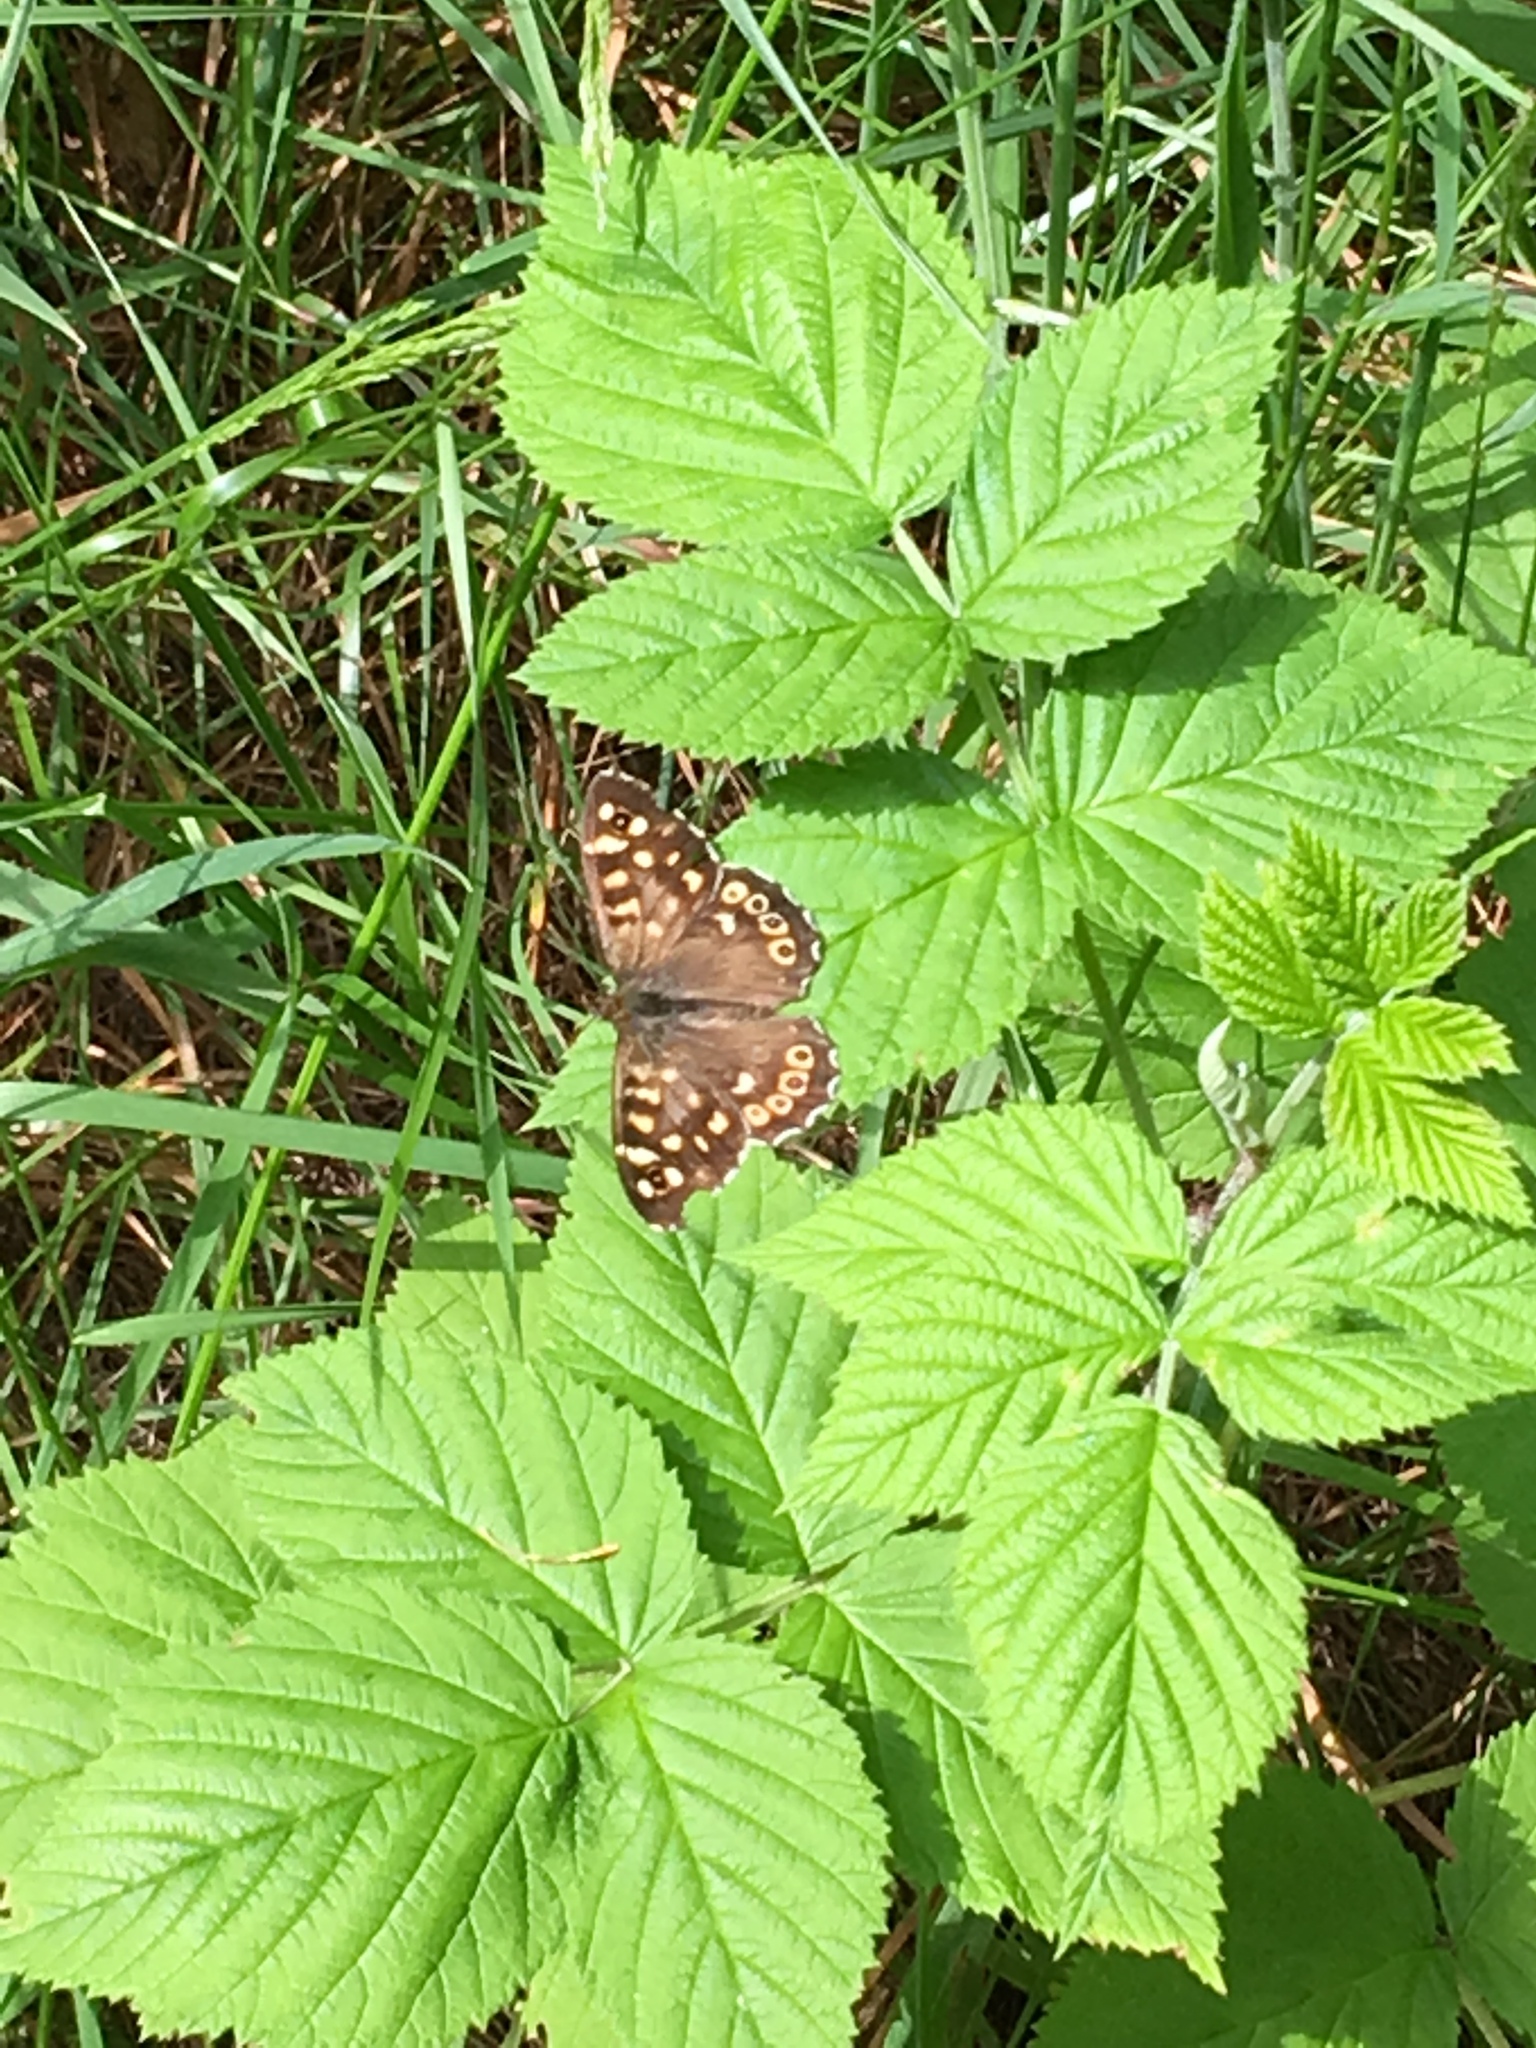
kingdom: Animalia
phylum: Arthropoda
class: Insecta
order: Lepidoptera
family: Nymphalidae
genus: Pararge
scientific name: Pararge aegeria
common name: Speckled wood
